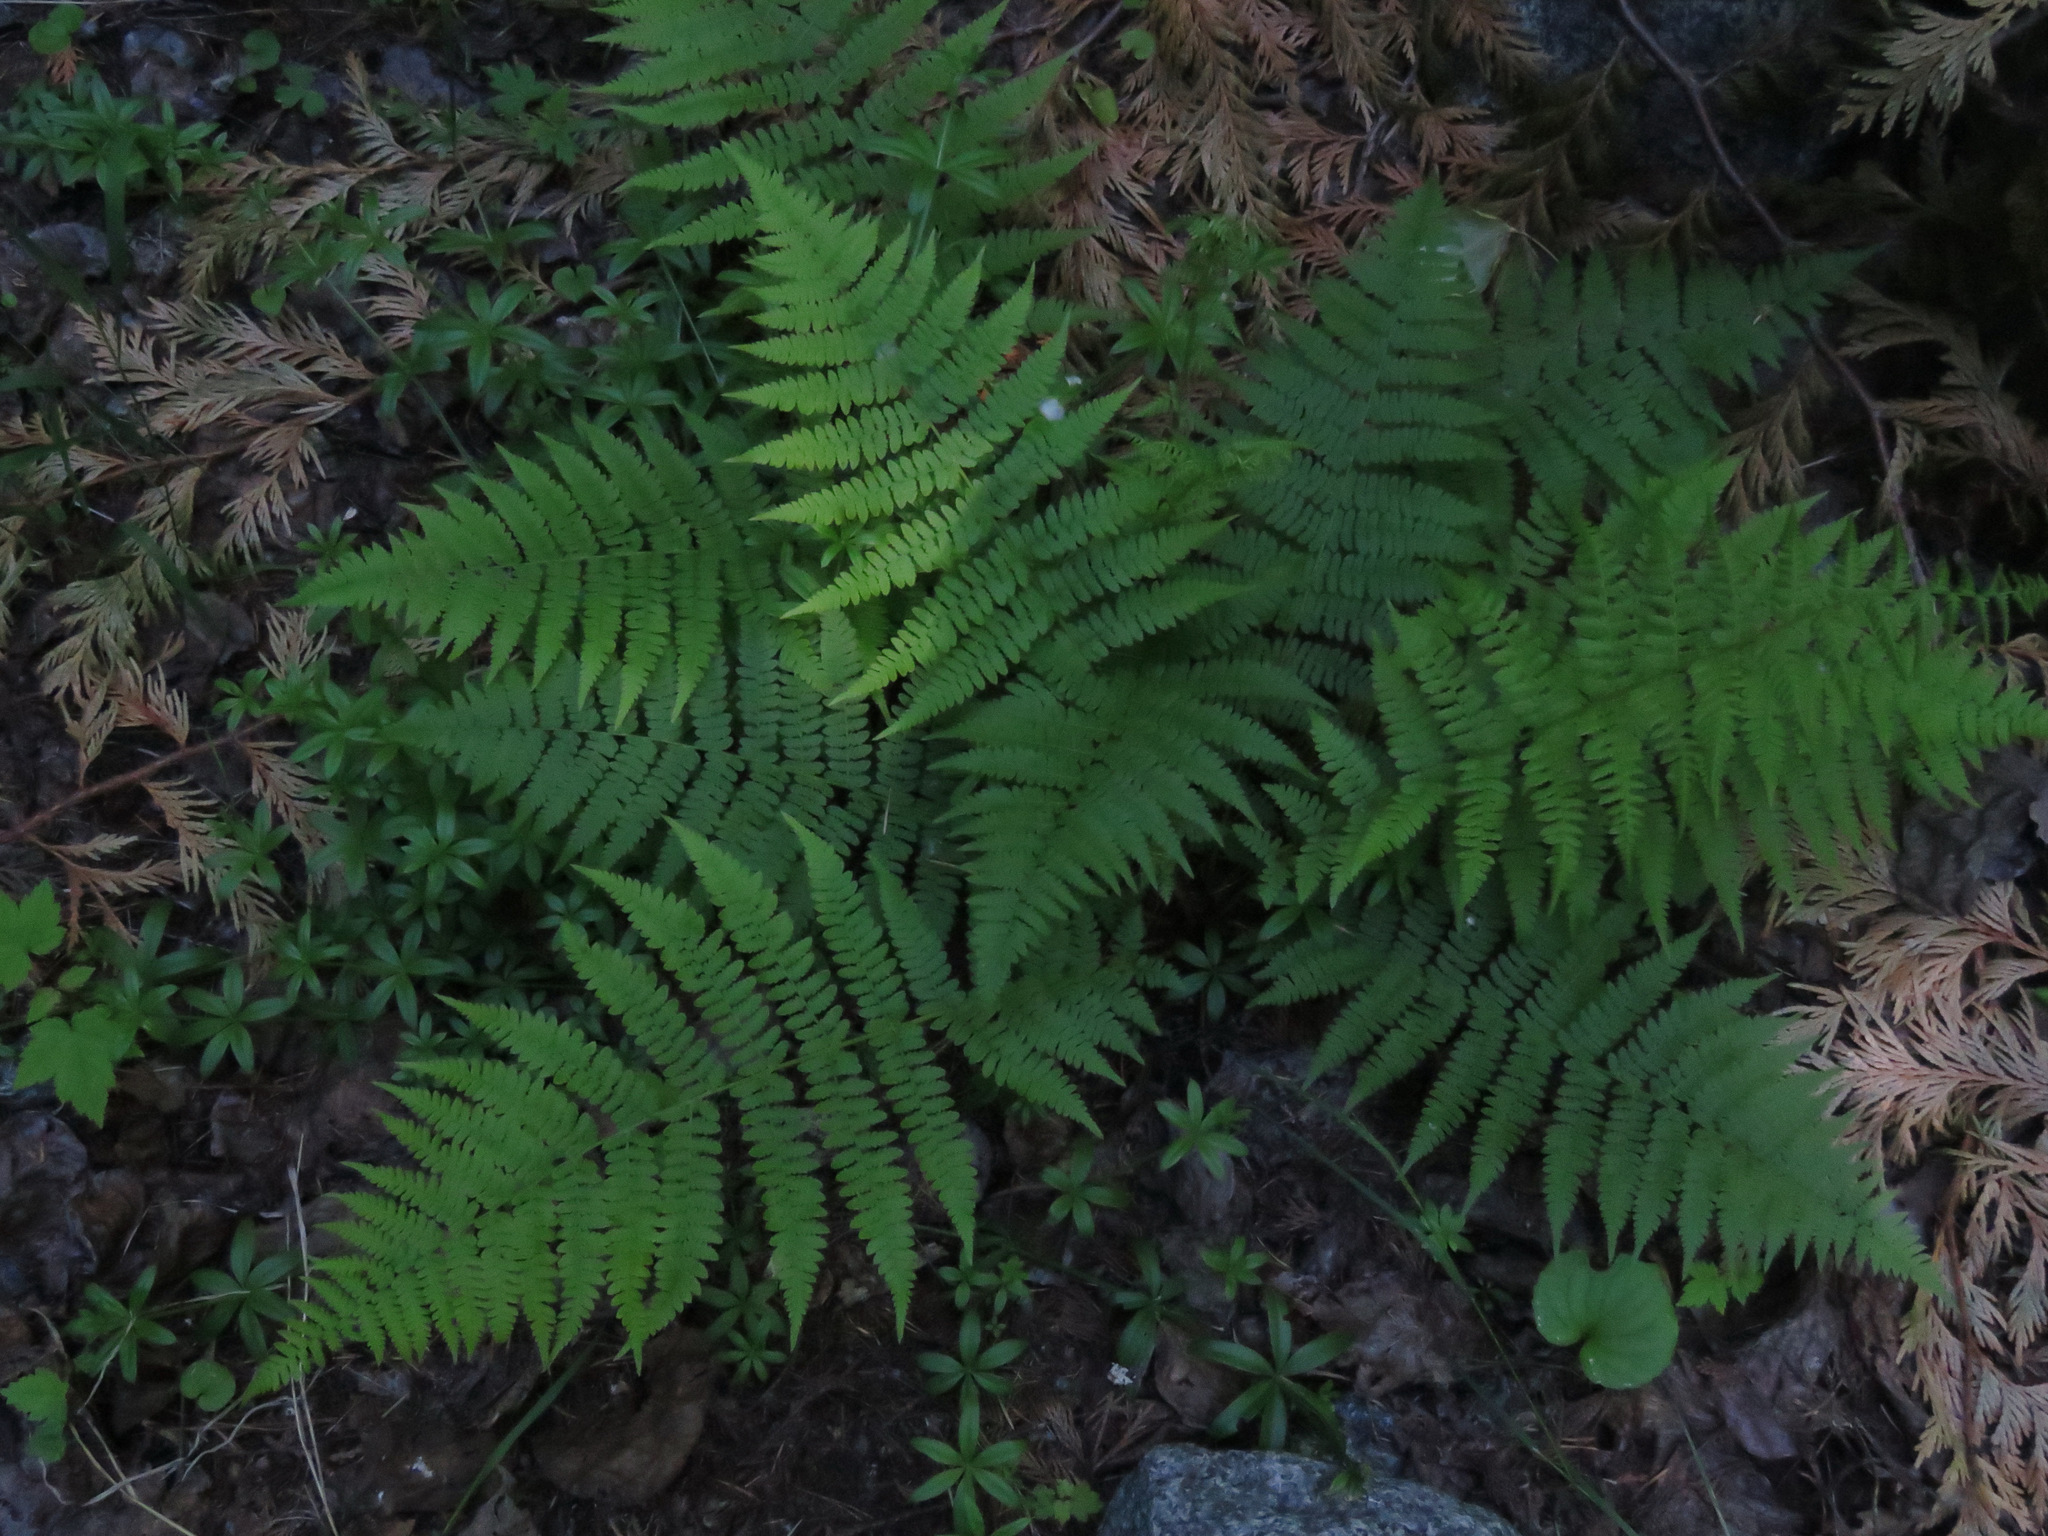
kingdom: Plantae
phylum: Tracheophyta
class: Polypodiopsida
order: Polypodiales
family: Athyriaceae
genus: Athyrium
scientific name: Athyrium filix-femina
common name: Lady fern
